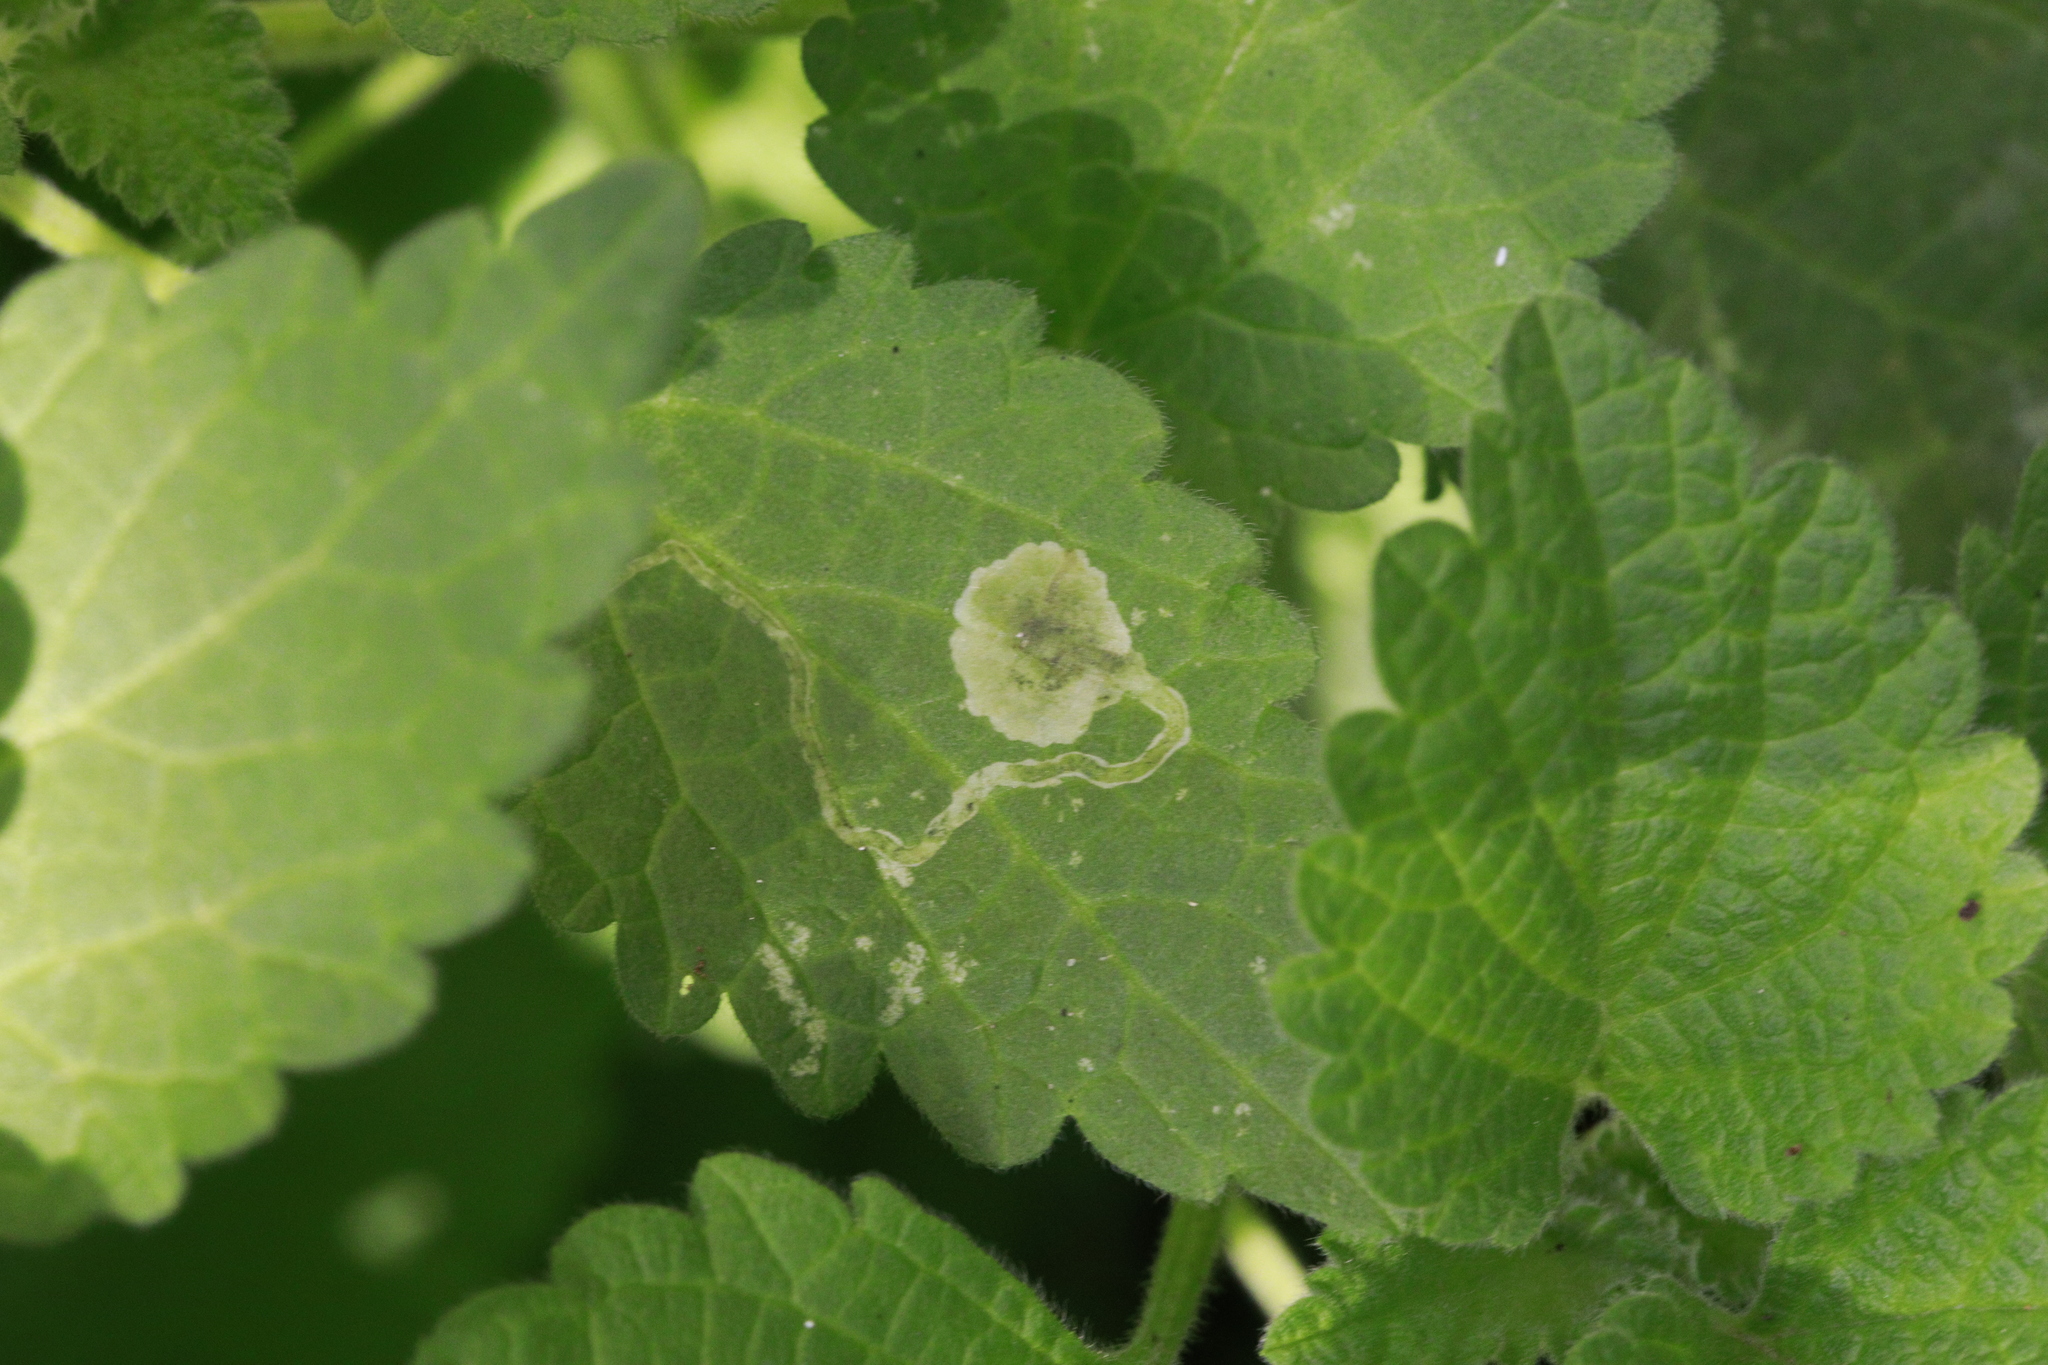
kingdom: Animalia
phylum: Arthropoda
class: Insecta
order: Diptera
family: Agromyzidae
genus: Amauromyza
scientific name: Amauromyza labiatarum
